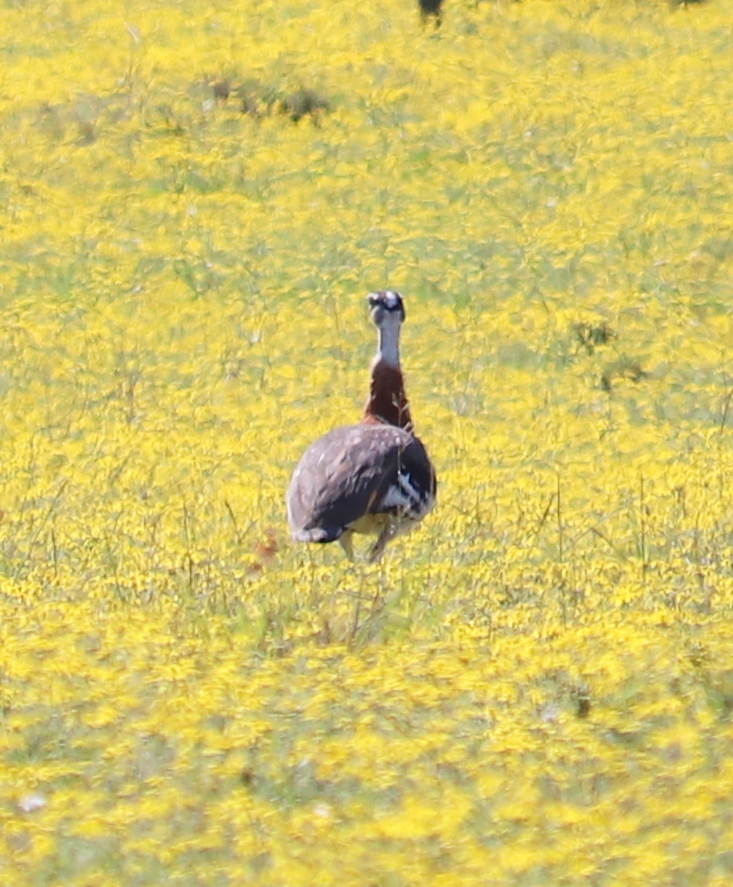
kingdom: Animalia
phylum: Chordata
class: Aves
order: Otidiformes
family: Otididae
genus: Neotis
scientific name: Neotis denhami
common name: Denham's bustard
